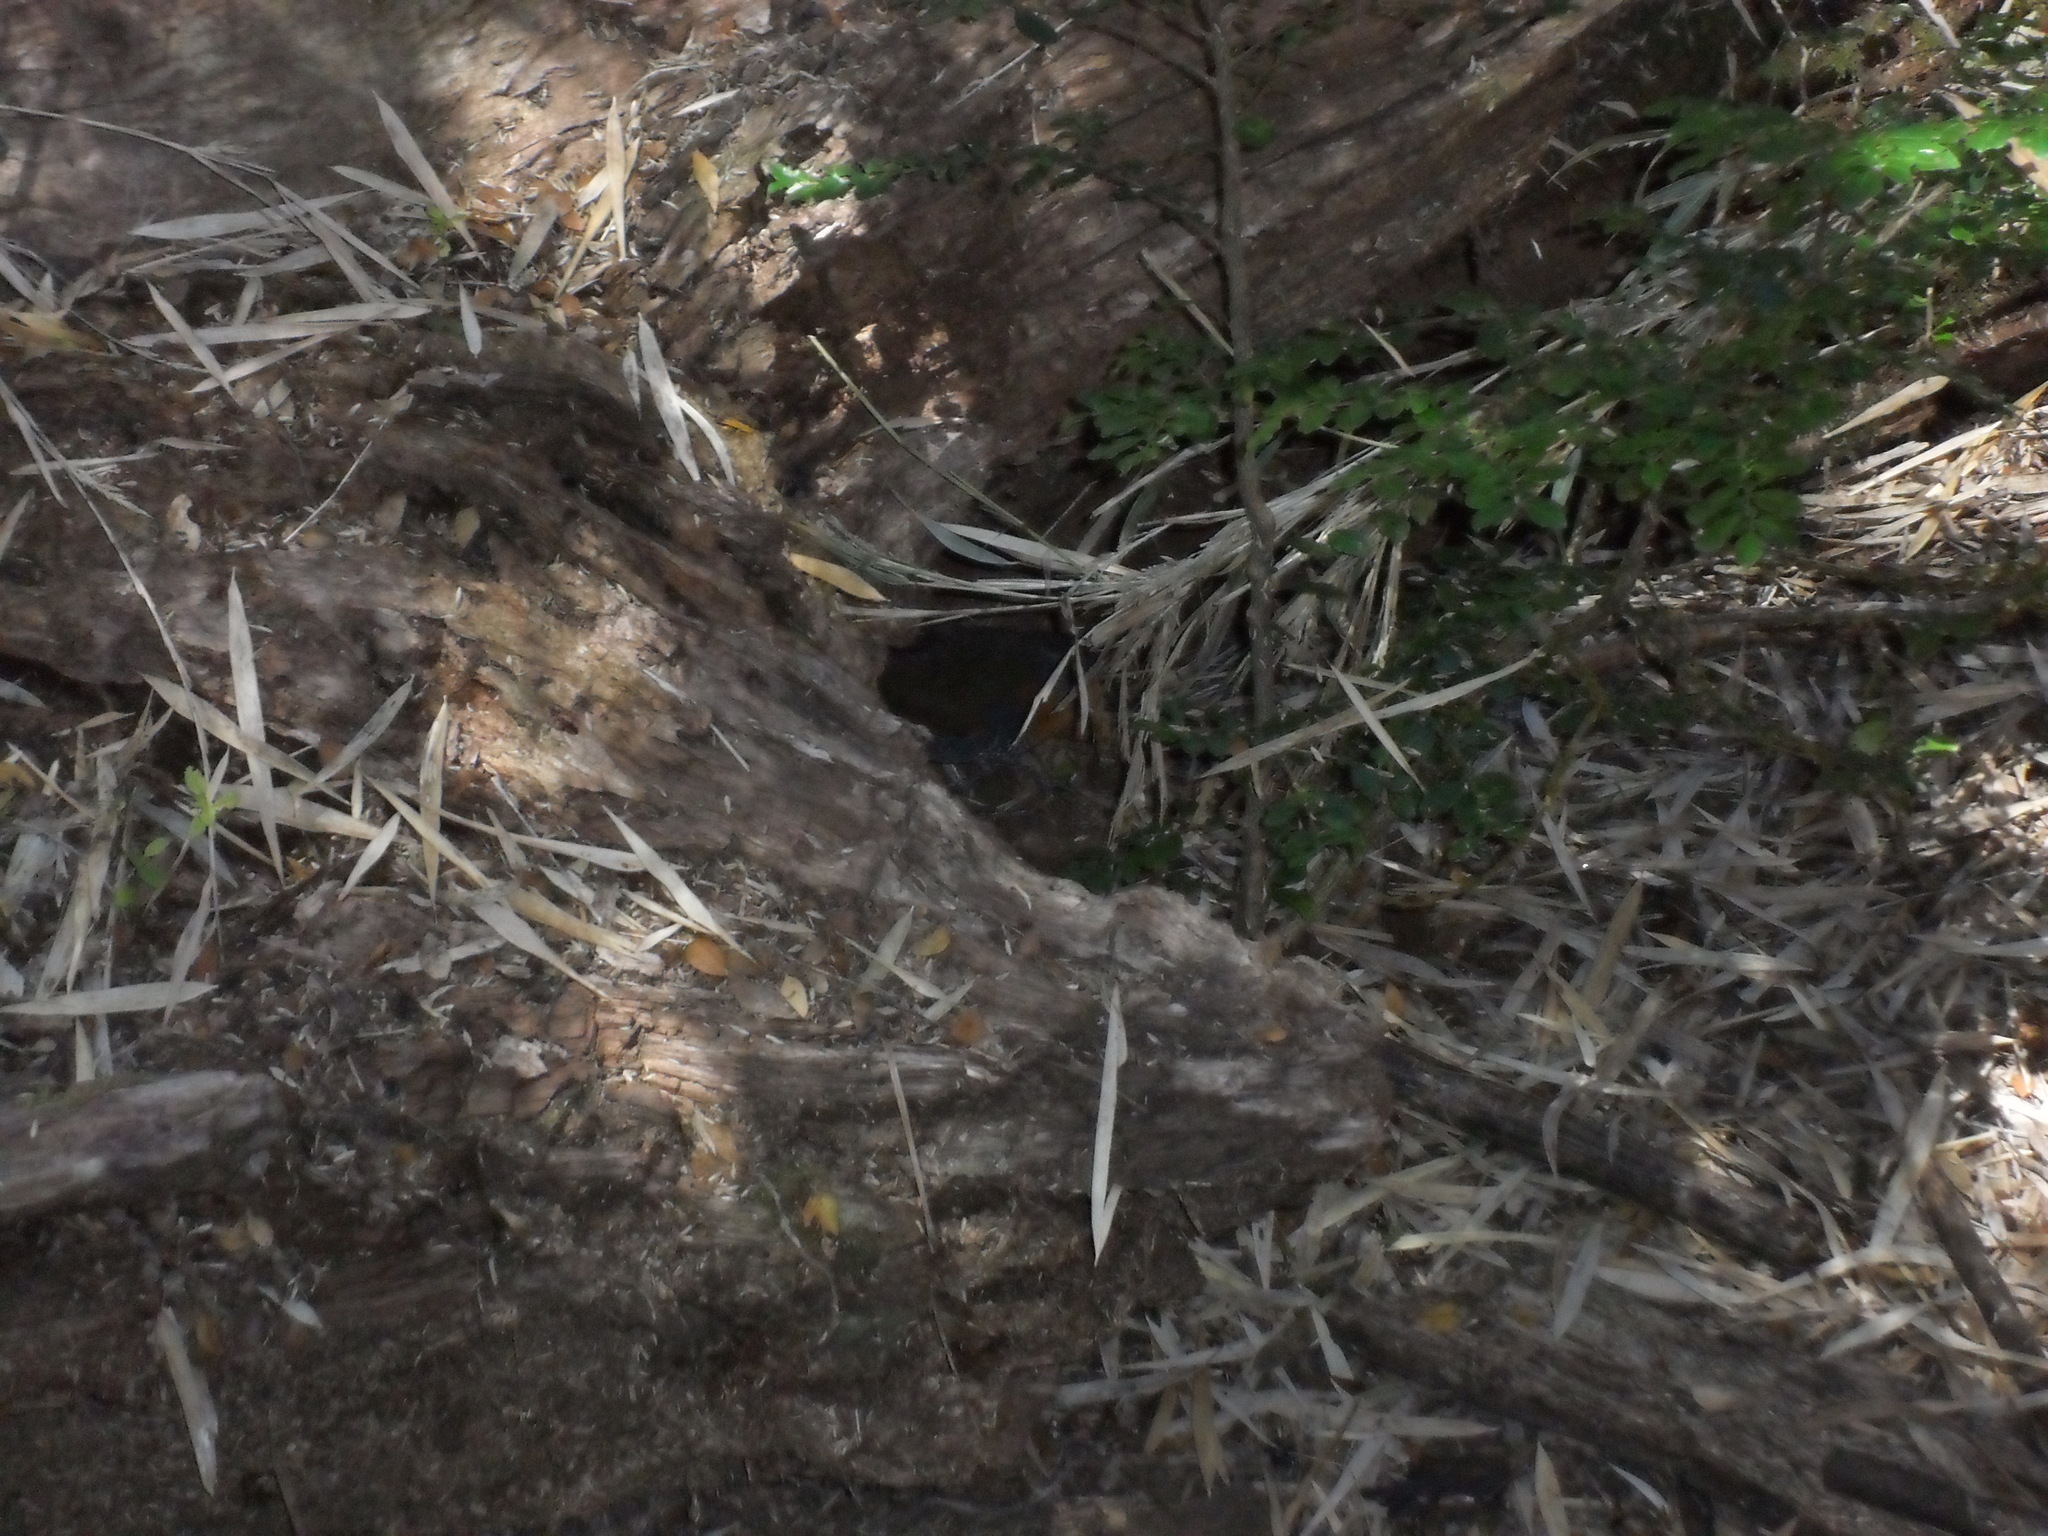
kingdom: Animalia
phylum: Chordata
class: Aves
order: Passeriformes
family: Rhinocryptidae
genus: Scelorchilus
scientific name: Scelorchilus rubecula
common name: Chucao tapaculo
